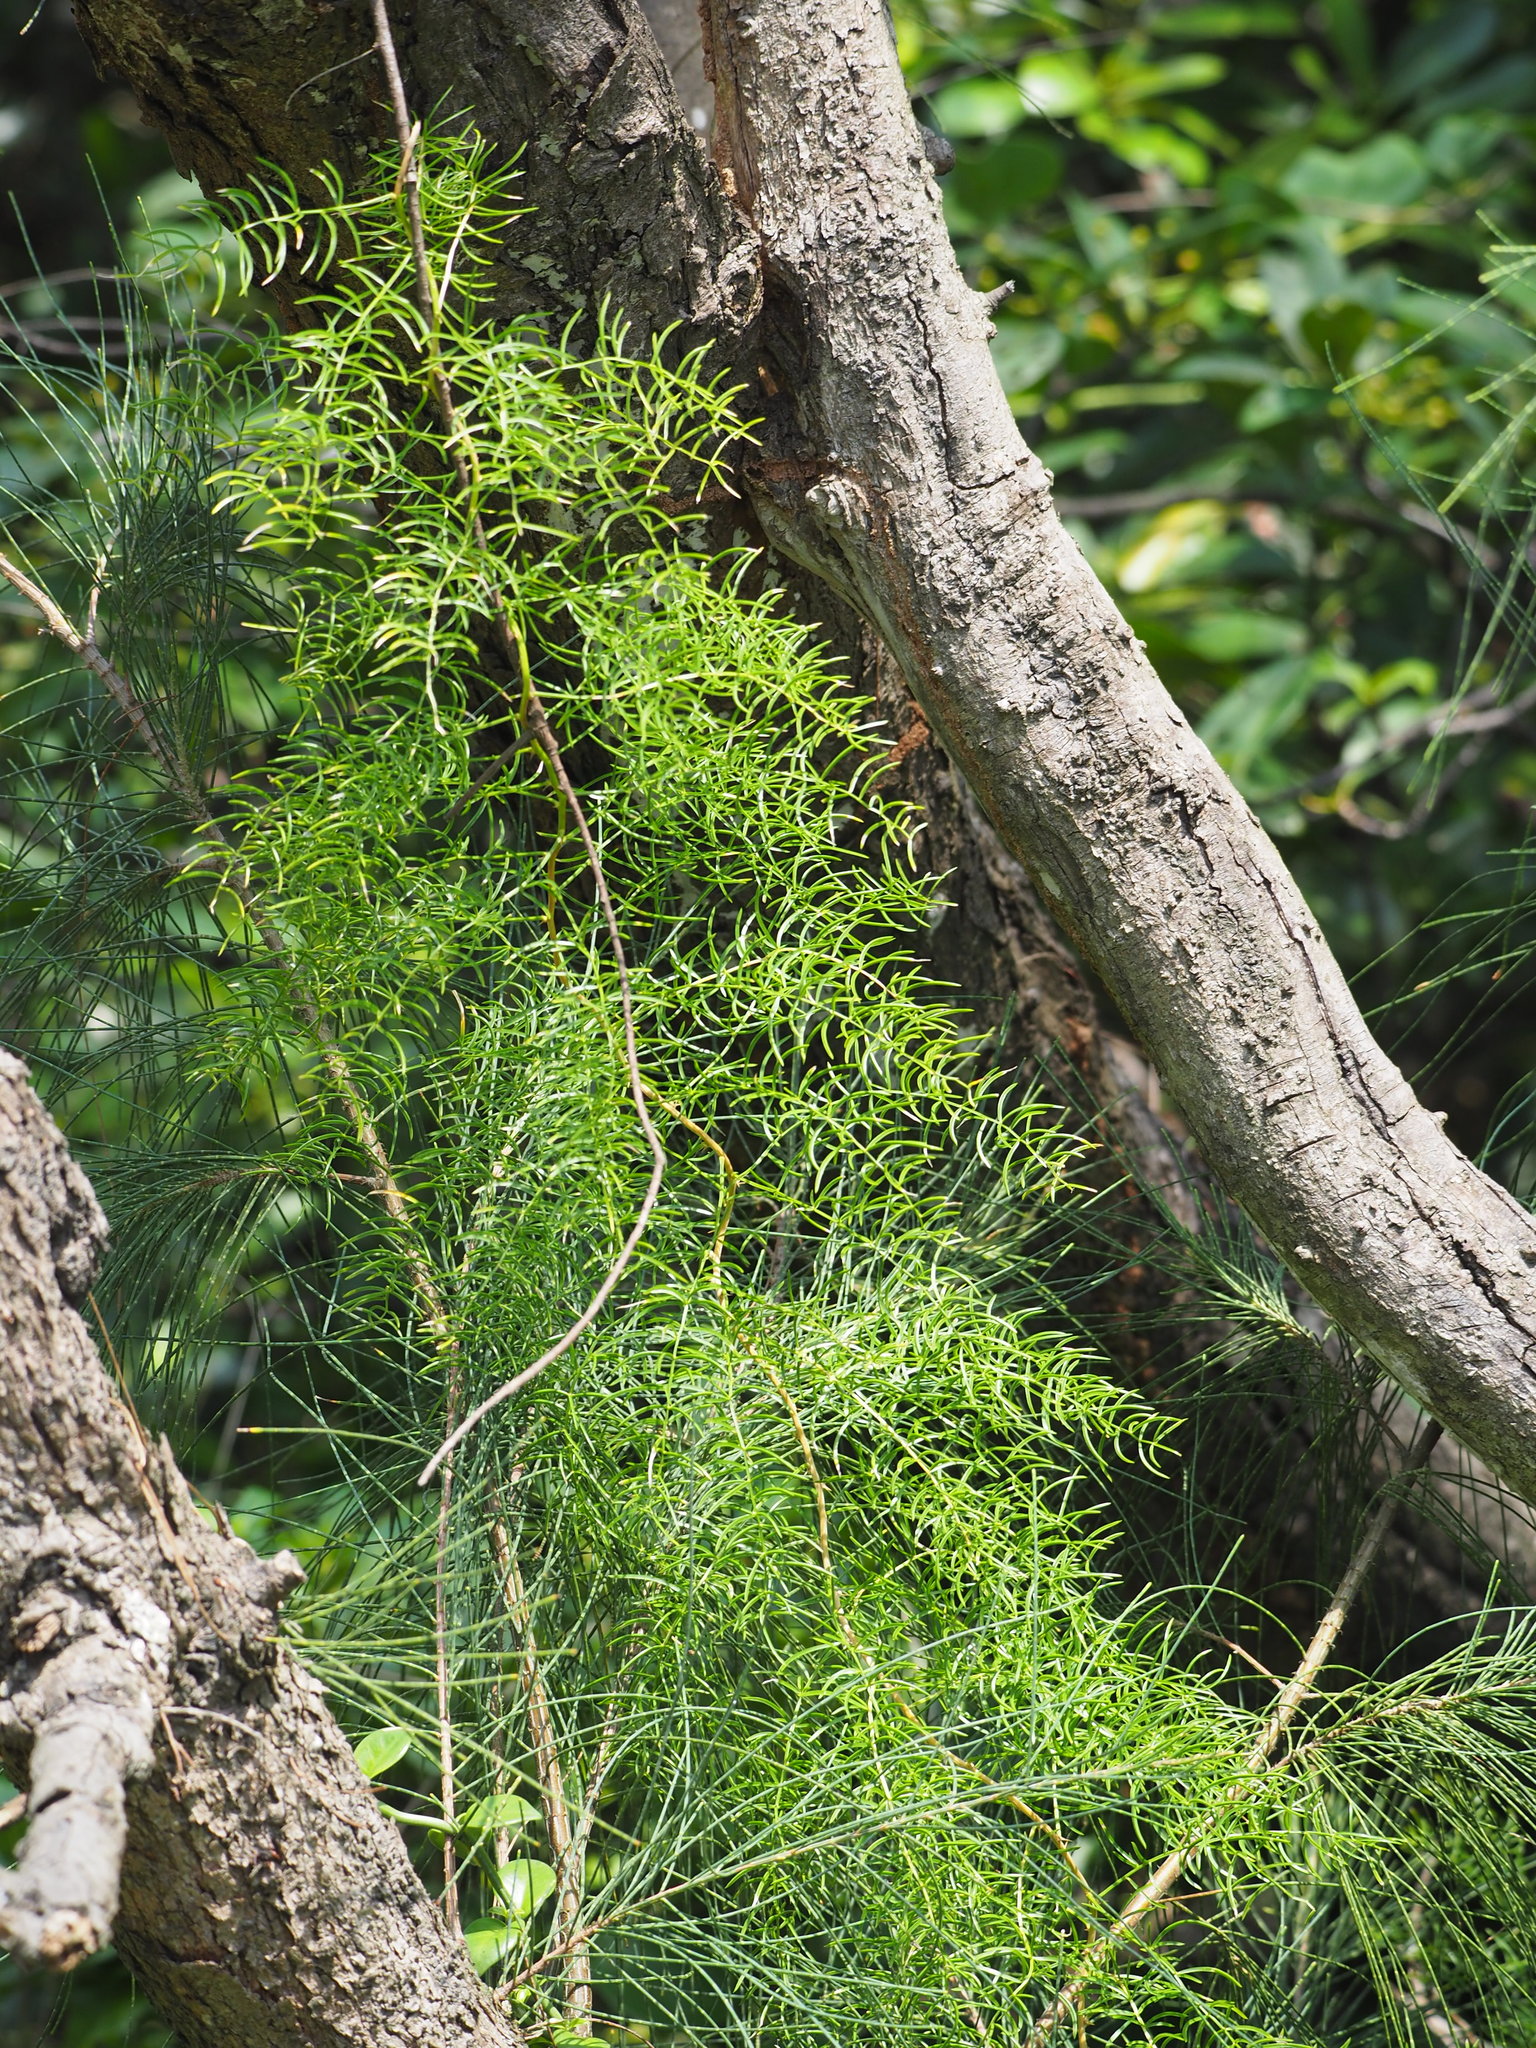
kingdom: Plantae
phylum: Tracheophyta
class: Liliopsida
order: Asparagales
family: Asparagaceae
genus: Asparagus
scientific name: Asparagus cochinchinensis
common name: Chinese asparagus
